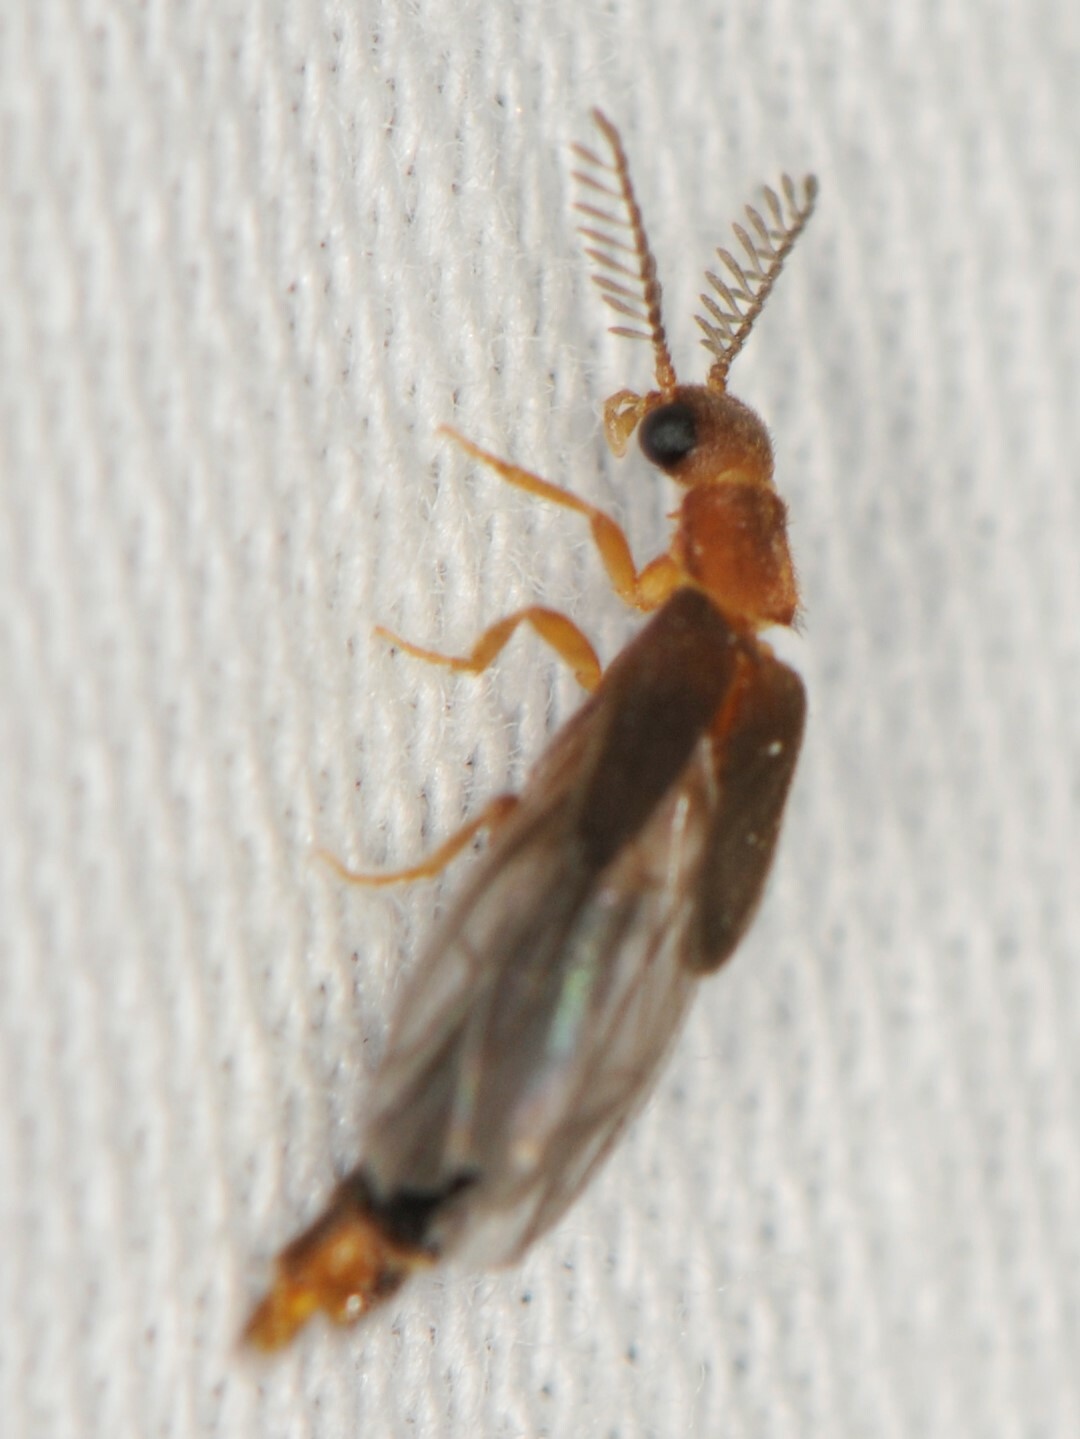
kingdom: Animalia
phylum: Arthropoda
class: Insecta
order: Coleoptera
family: Phengodidae
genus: Distremocephalus
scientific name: Distremocephalus opaculus
